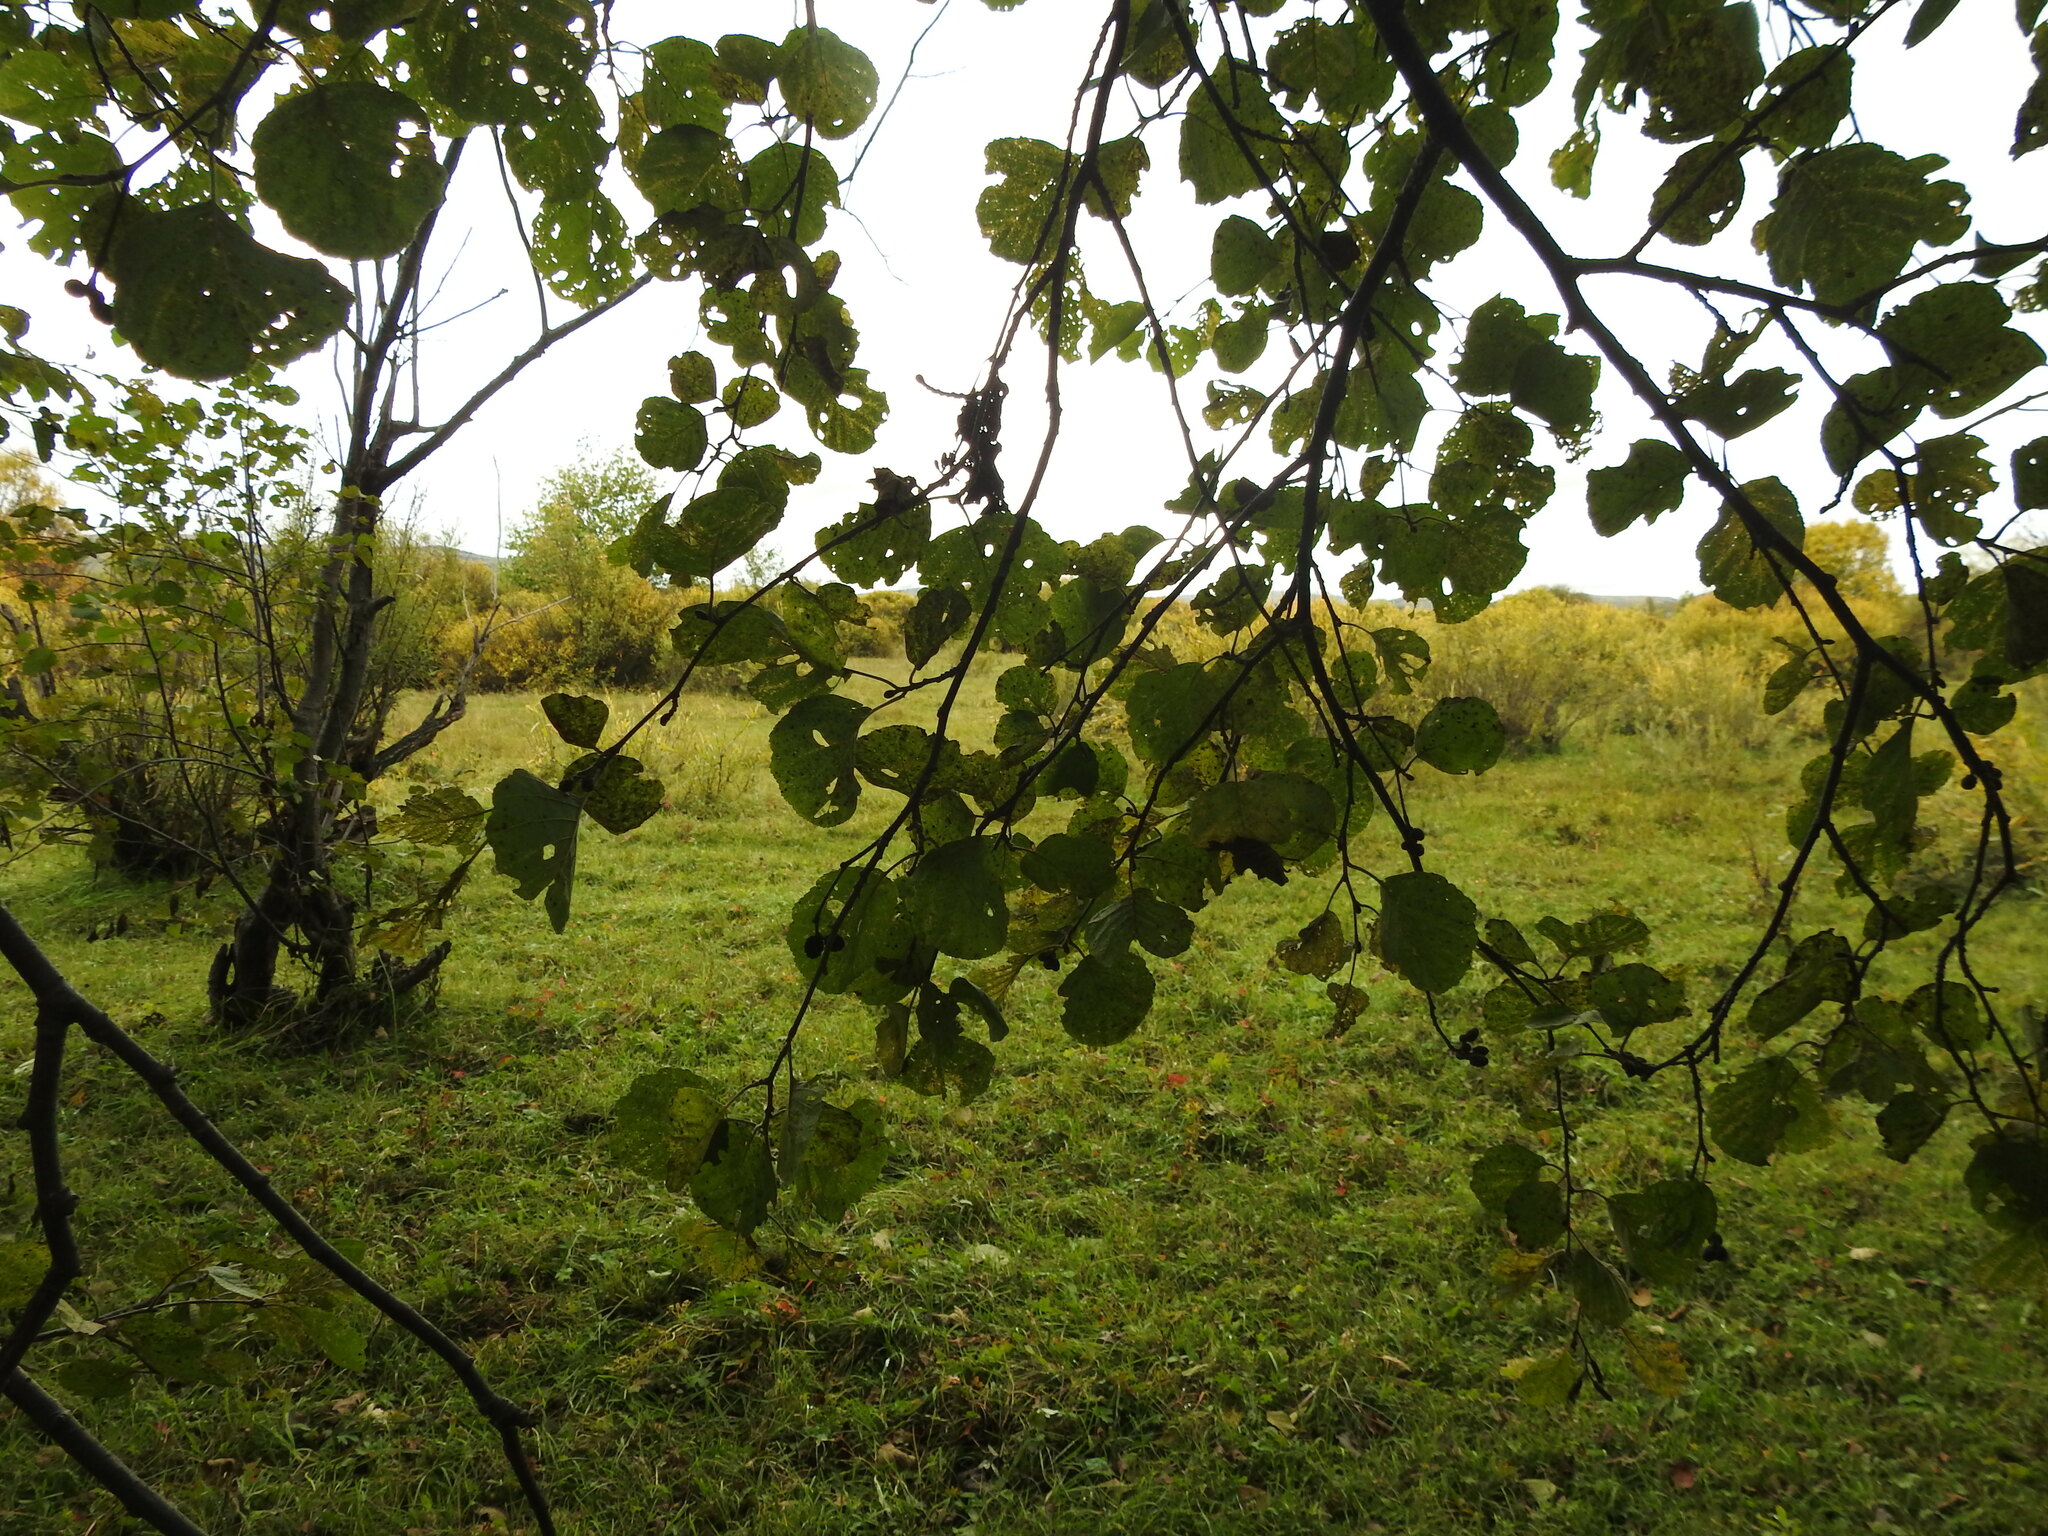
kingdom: Plantae
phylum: Tracheophyta
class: Magnoliopsida
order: Fagales
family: Betulaceae
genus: Alnus
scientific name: Alnus hirsuta
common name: Manchurian alder
